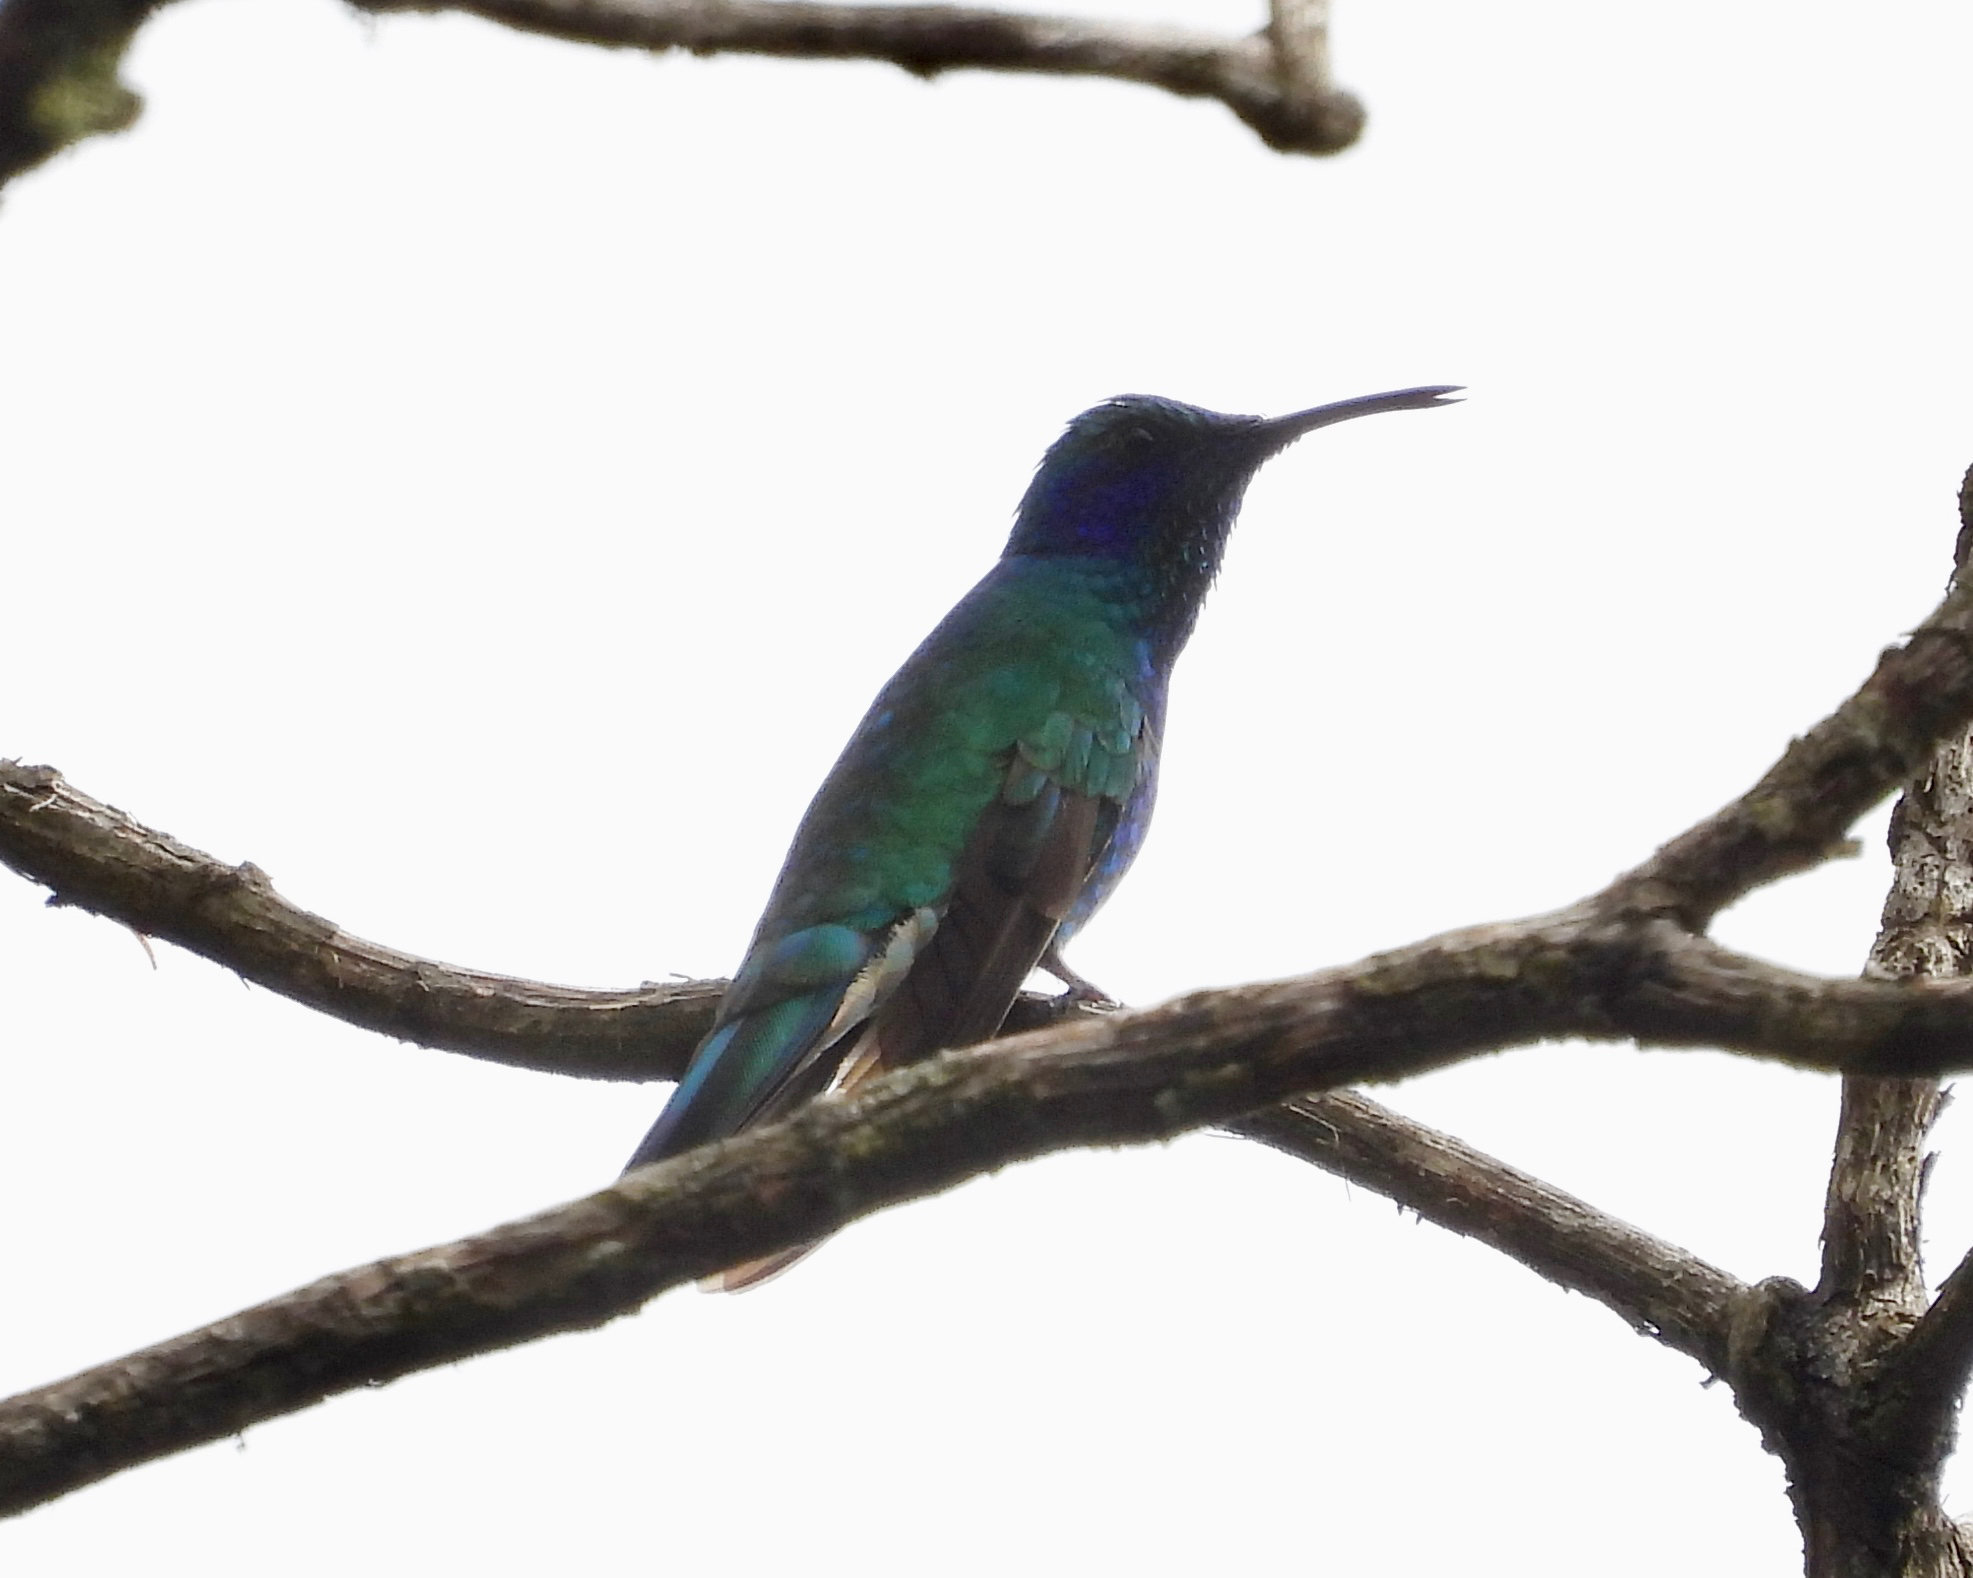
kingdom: Animalia
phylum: Chordata
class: Aves
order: Apodiformes
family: Trochilidae
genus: Colibri
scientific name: Colibri thalassinus
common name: Green violetear
